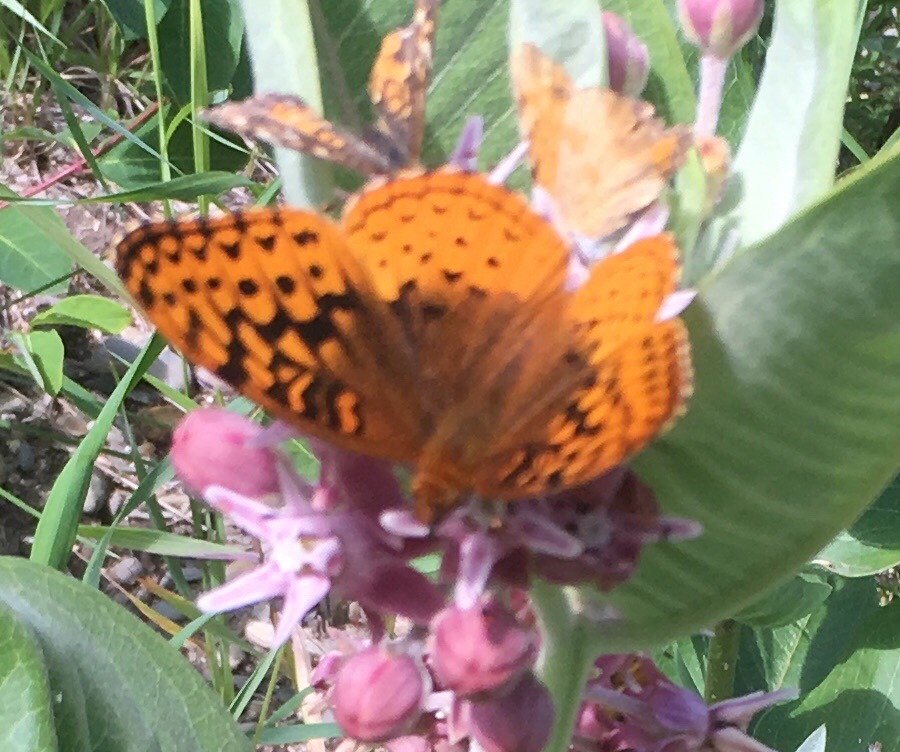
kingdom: Animalia
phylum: Arthropoda
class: Insecta
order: Lepidoptera
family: Nymphalidae
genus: Speyeria
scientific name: Speyeria cybele
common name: Great spangled fritillary
